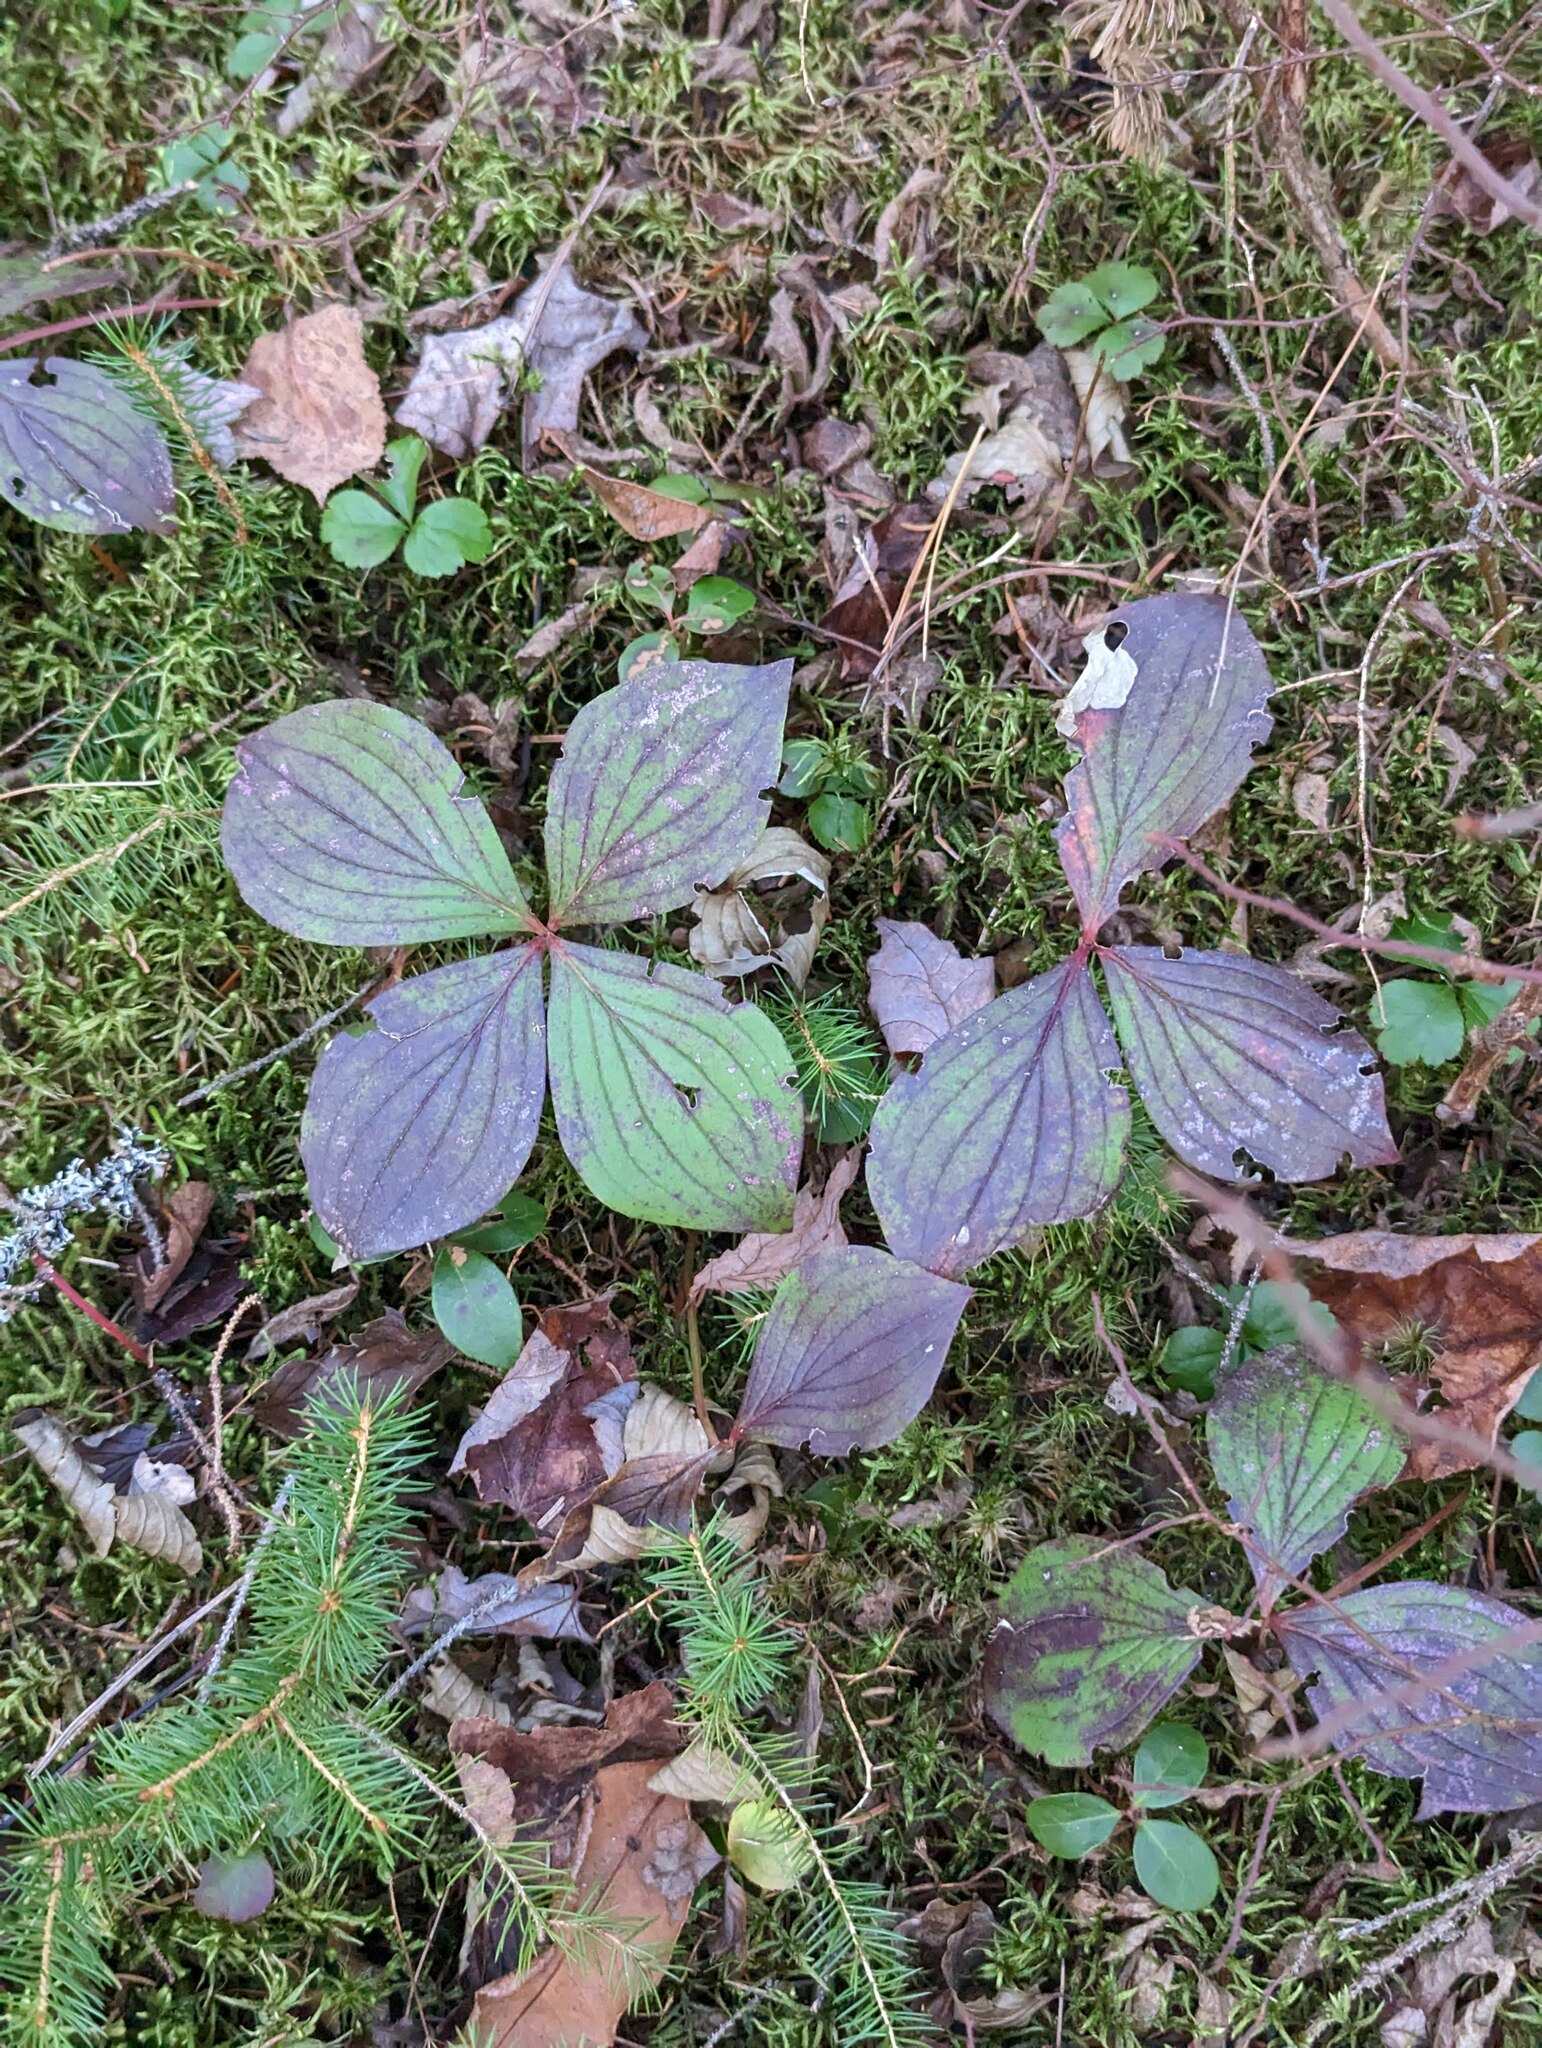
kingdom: Plantae
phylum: Tracheophyta
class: Magnoliopsida
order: Cornales
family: Cornaceae
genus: Cornus
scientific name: Cornus canadensis
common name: Creeping dogwood
